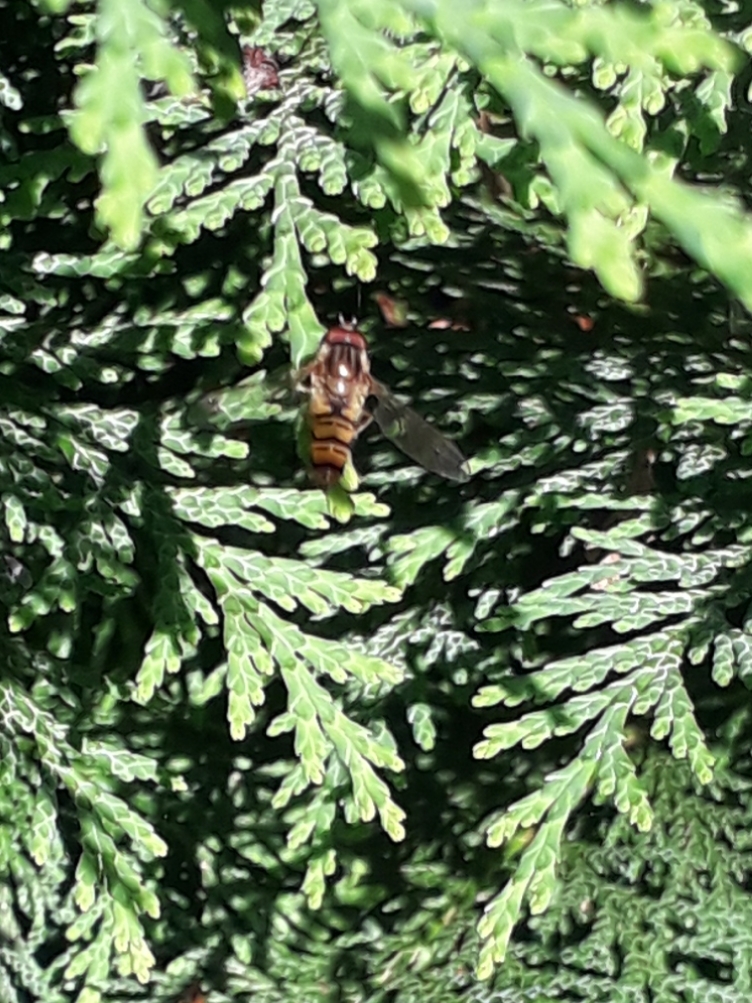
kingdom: Animalia
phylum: Arthropoda
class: Insecta
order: Diptera
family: Syrphidae
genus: Episyrphus
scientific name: Episyrphus balteatus
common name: Marmalade hoverfly
